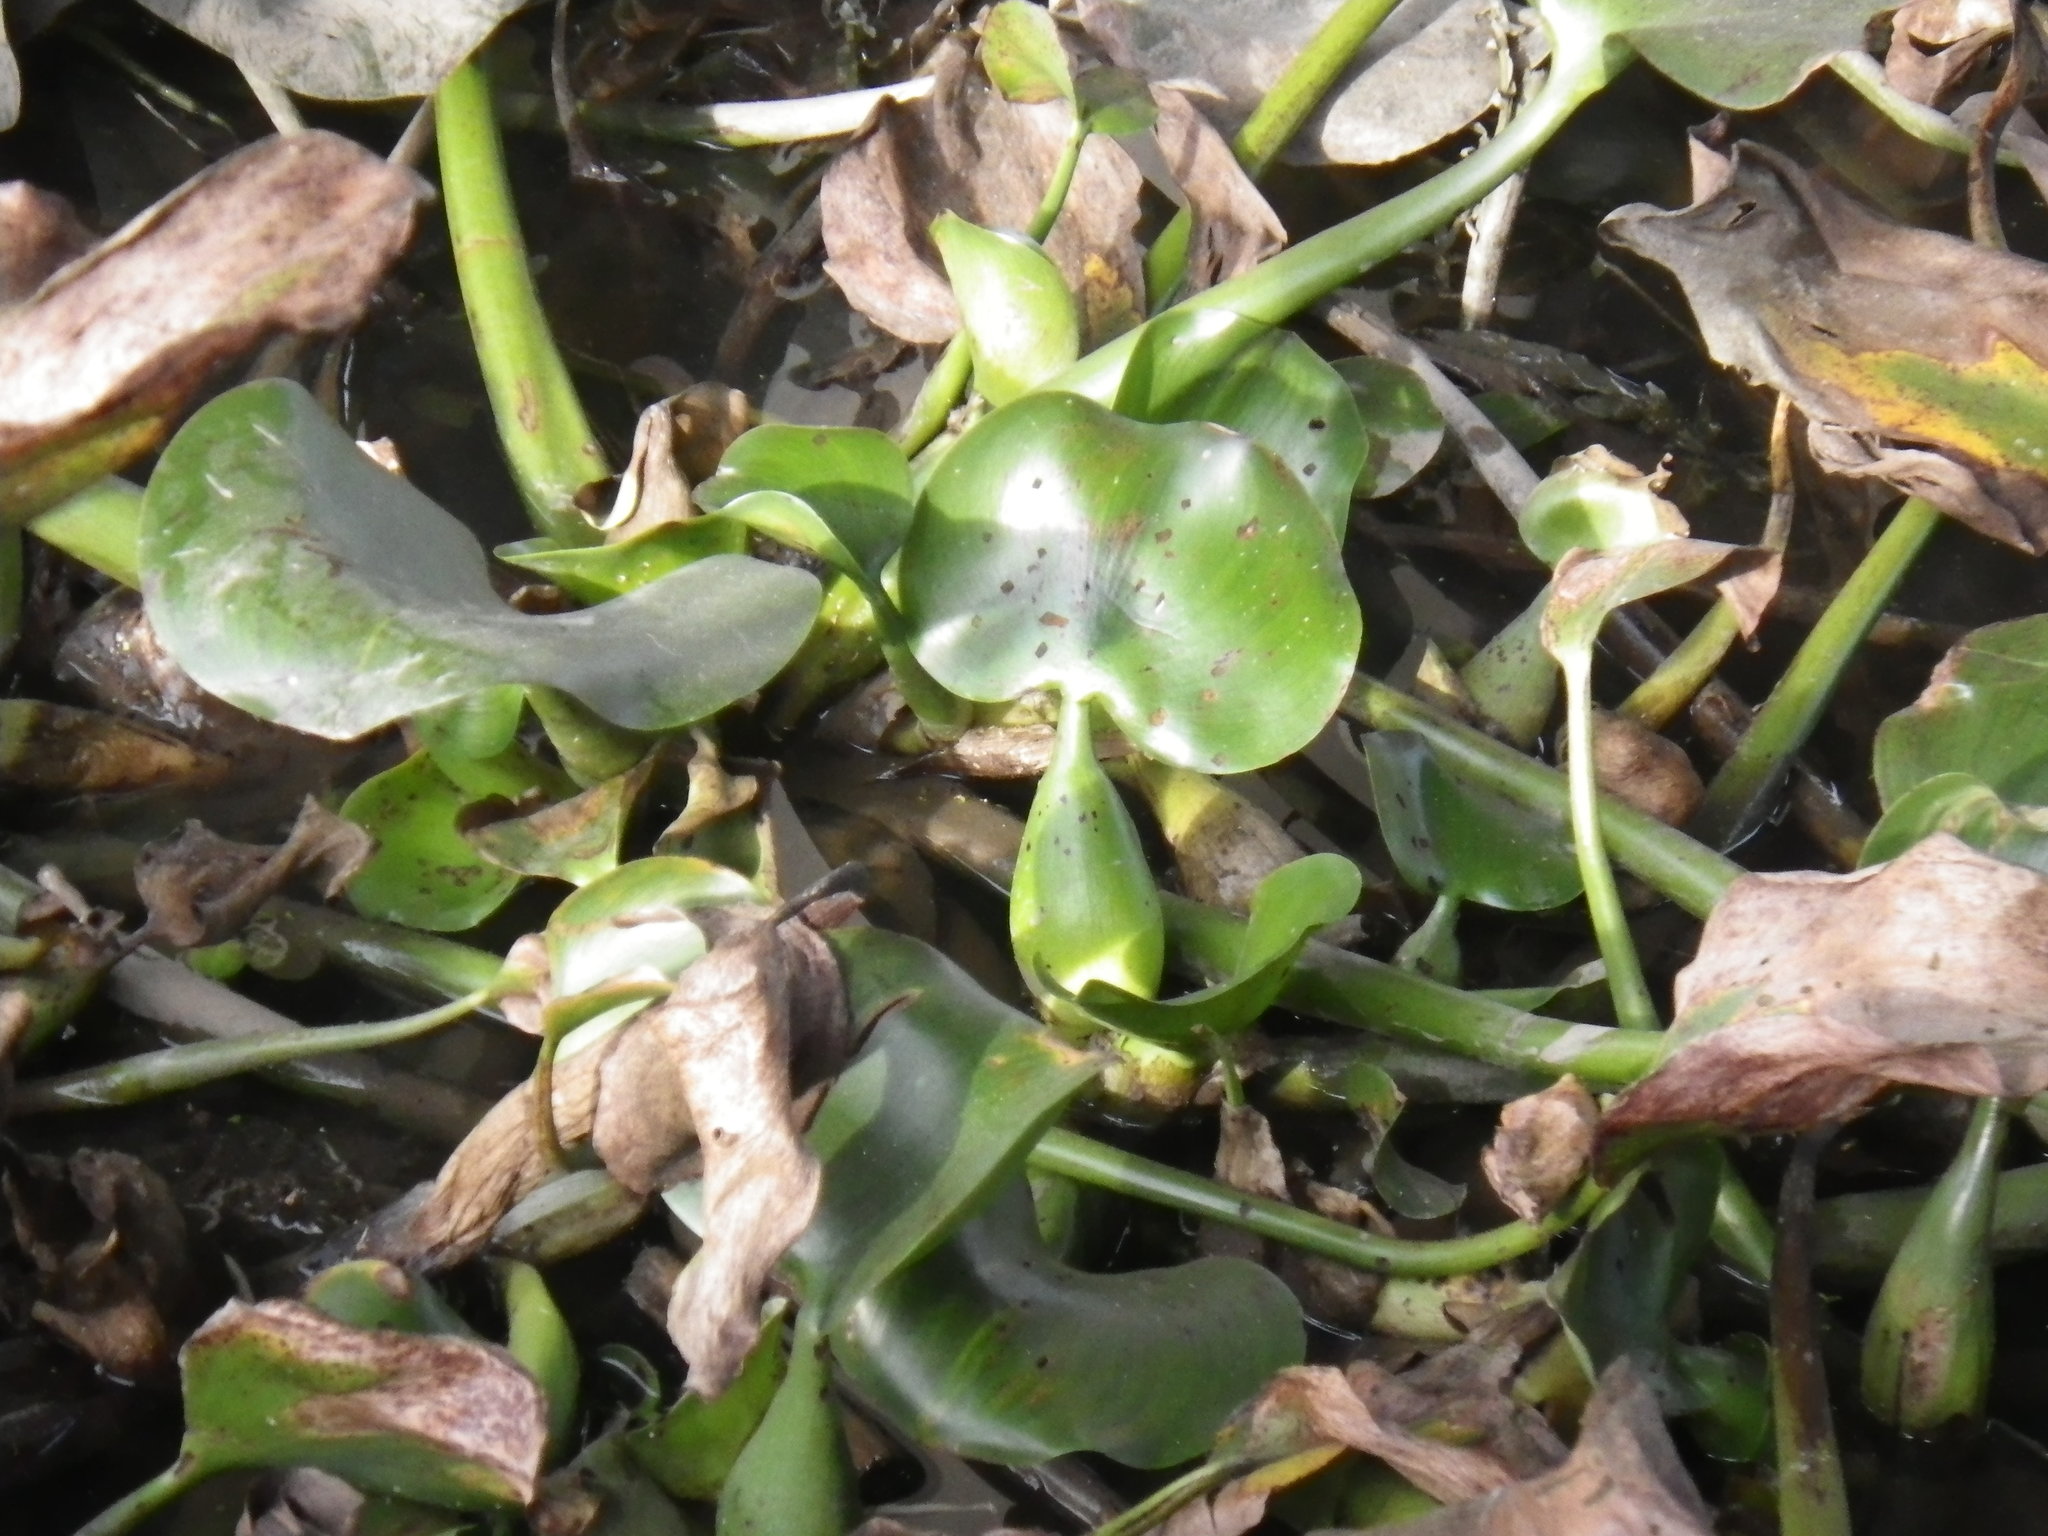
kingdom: Plantae
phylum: Tracheophyta
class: Liliopsida
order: Commelinales
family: Pontederiaceae
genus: Pontederia
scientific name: Pontederia crassipes
